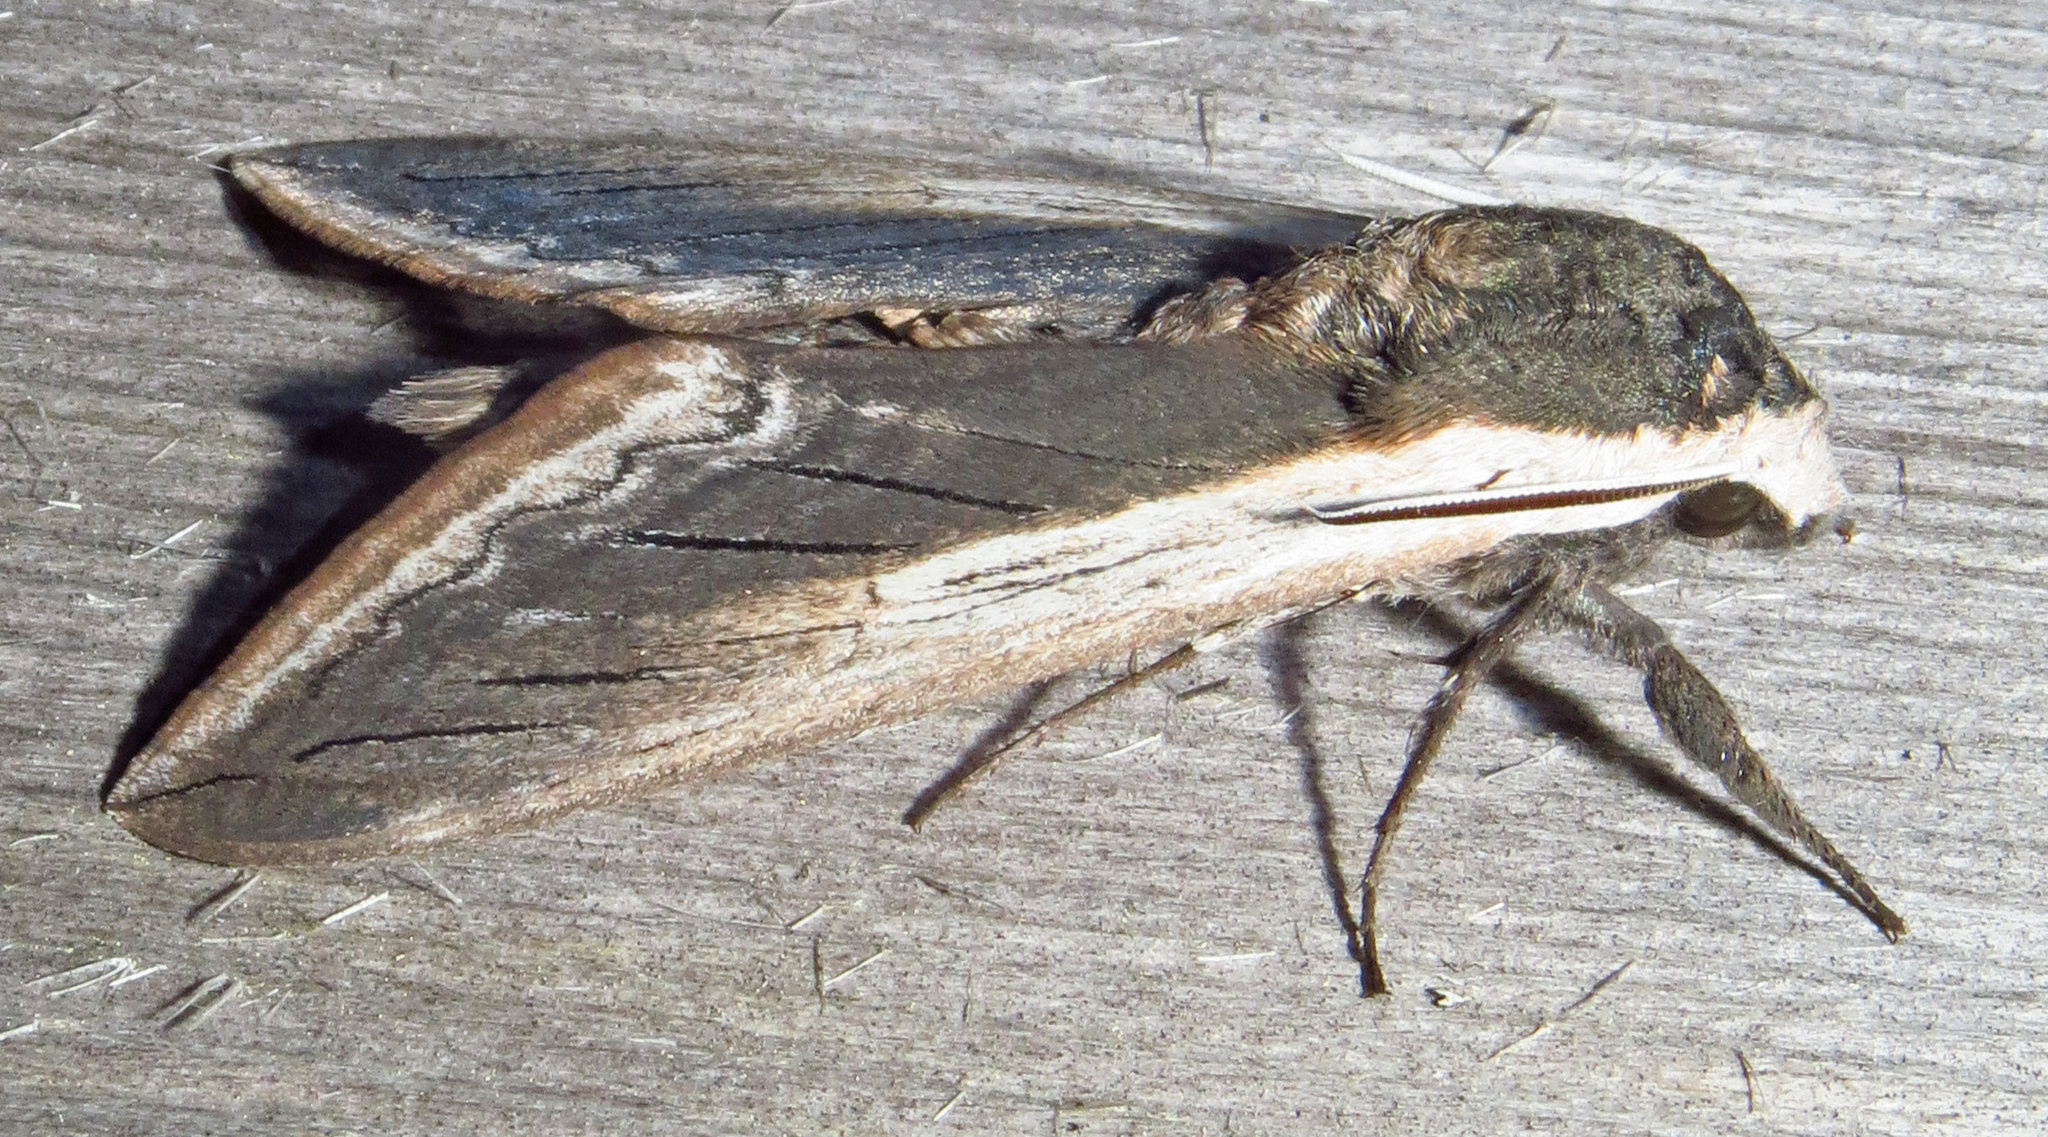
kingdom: Animalia
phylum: Arthropoda
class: Insecta
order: Lepidoptera
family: Sphingidae
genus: Sphinx
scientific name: Sphinx drupiferarum
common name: Wild cherry sphinx
